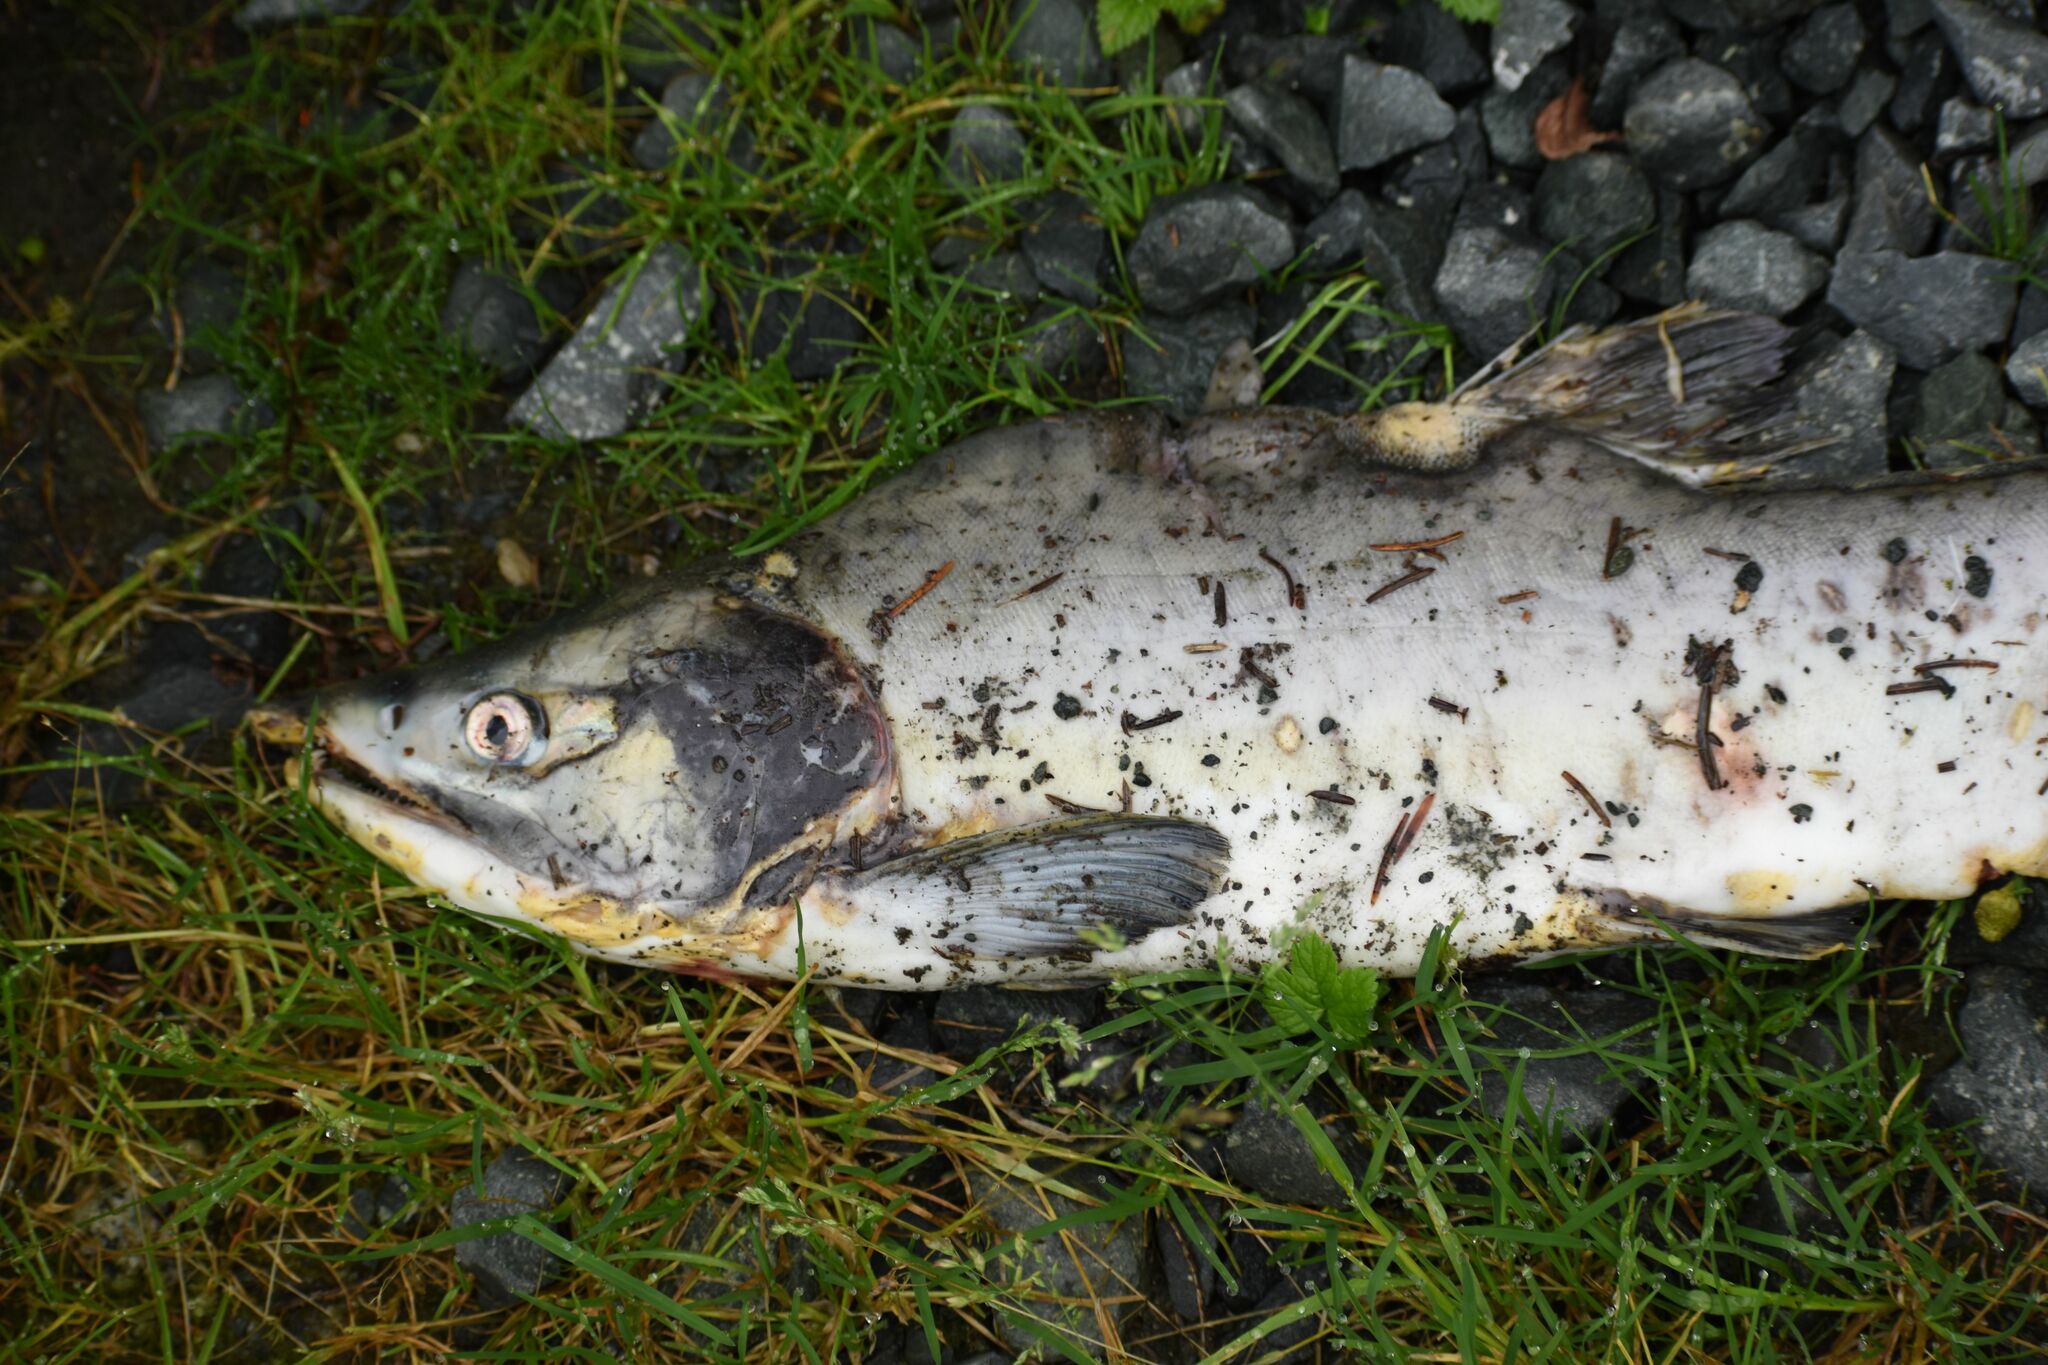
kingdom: Animalia
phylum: Chordata
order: Salmoniformes
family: Salmonidae
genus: Oncorhynchus
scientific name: Oncorhynchus gorbuscha
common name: Humpback salmon
